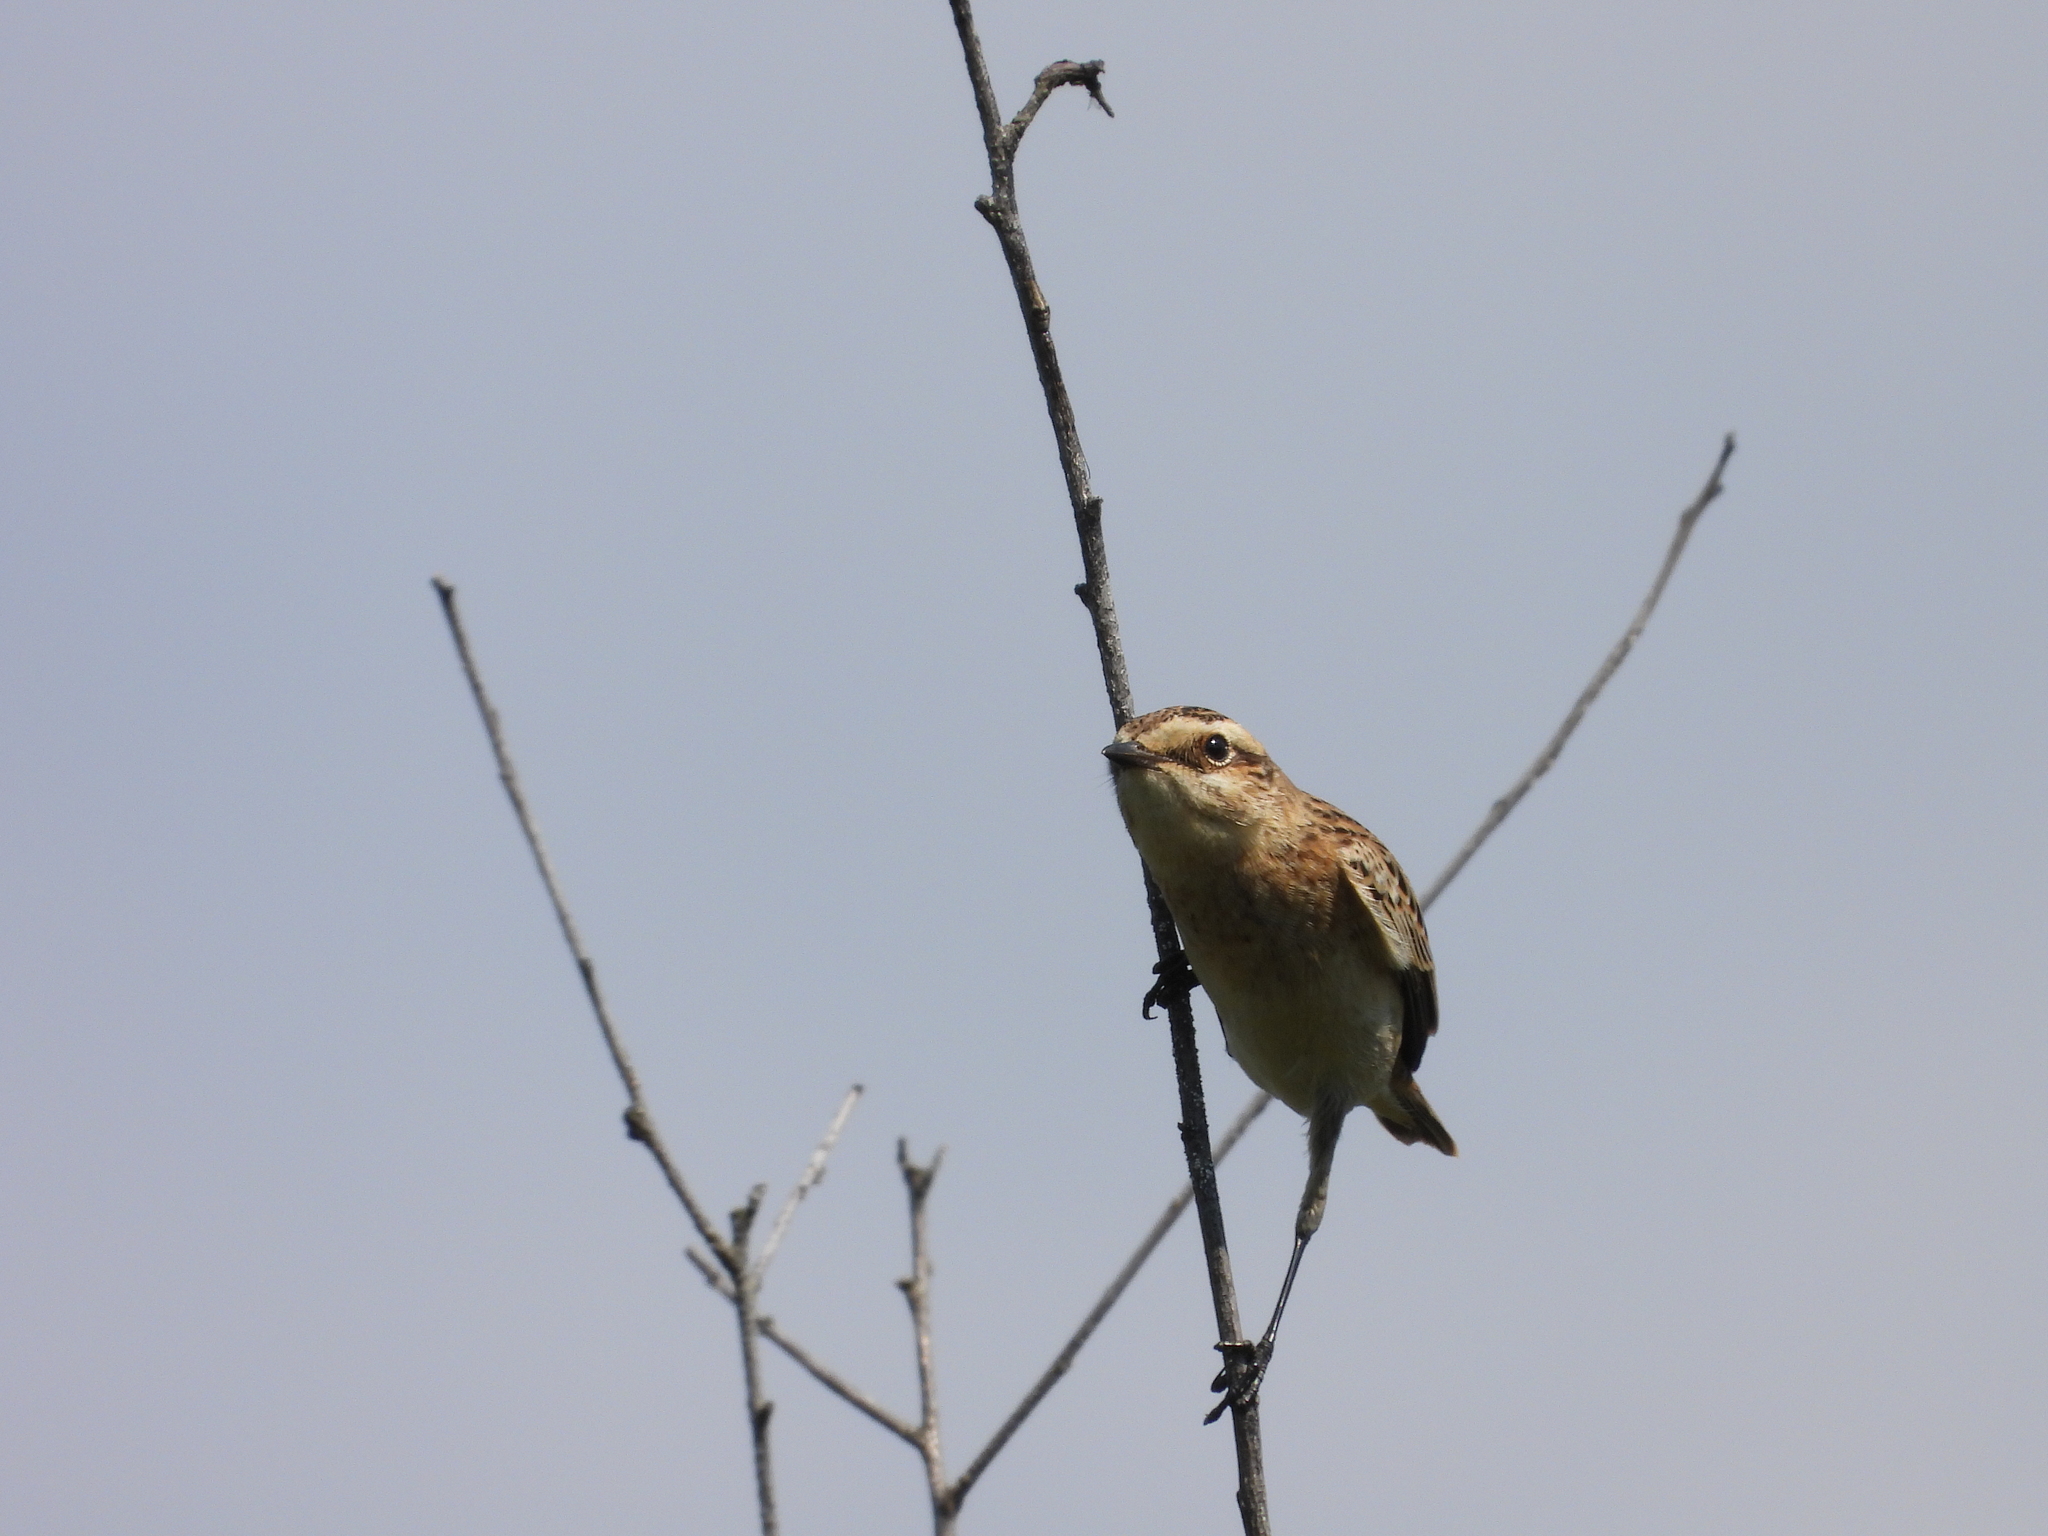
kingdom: Animalia
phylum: Chordata
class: Aves
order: Passeriformes
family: Muscicapidae
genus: Saxicola
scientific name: Saxicola rubetra
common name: Whinchat
